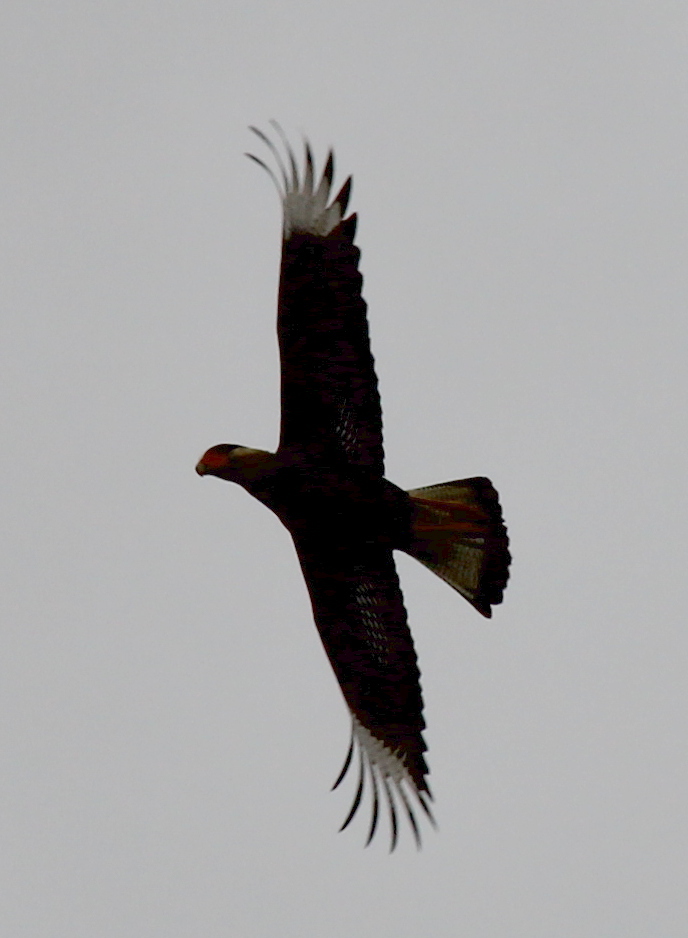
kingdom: Animalia
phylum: Chordata
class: Aves
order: Falconiformes
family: Falconidae
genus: Caracara
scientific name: Caracara plancus
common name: Southern caracara
